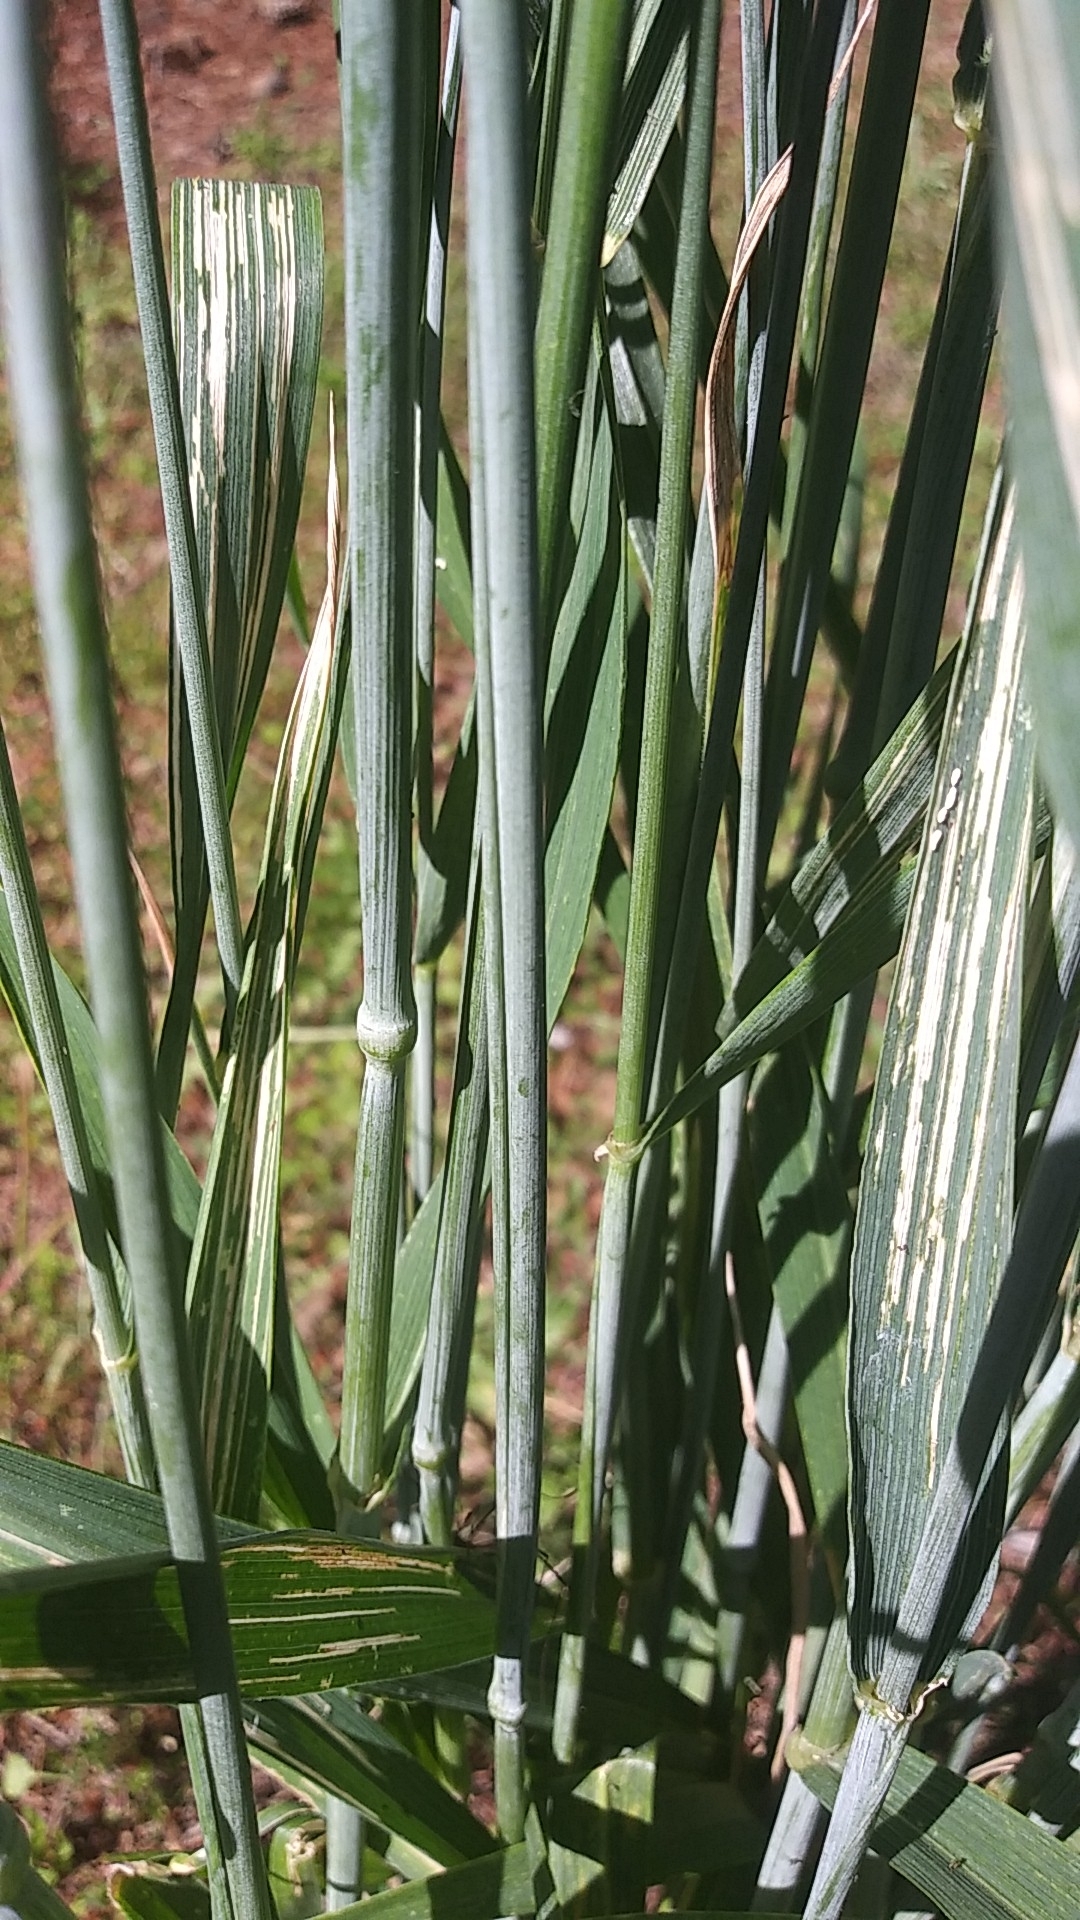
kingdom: Plantae
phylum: Tracheophyta
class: Liliopsida
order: Poales
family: Poaceae
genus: Triticum
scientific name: Triticum aestivum
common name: Common wheat
